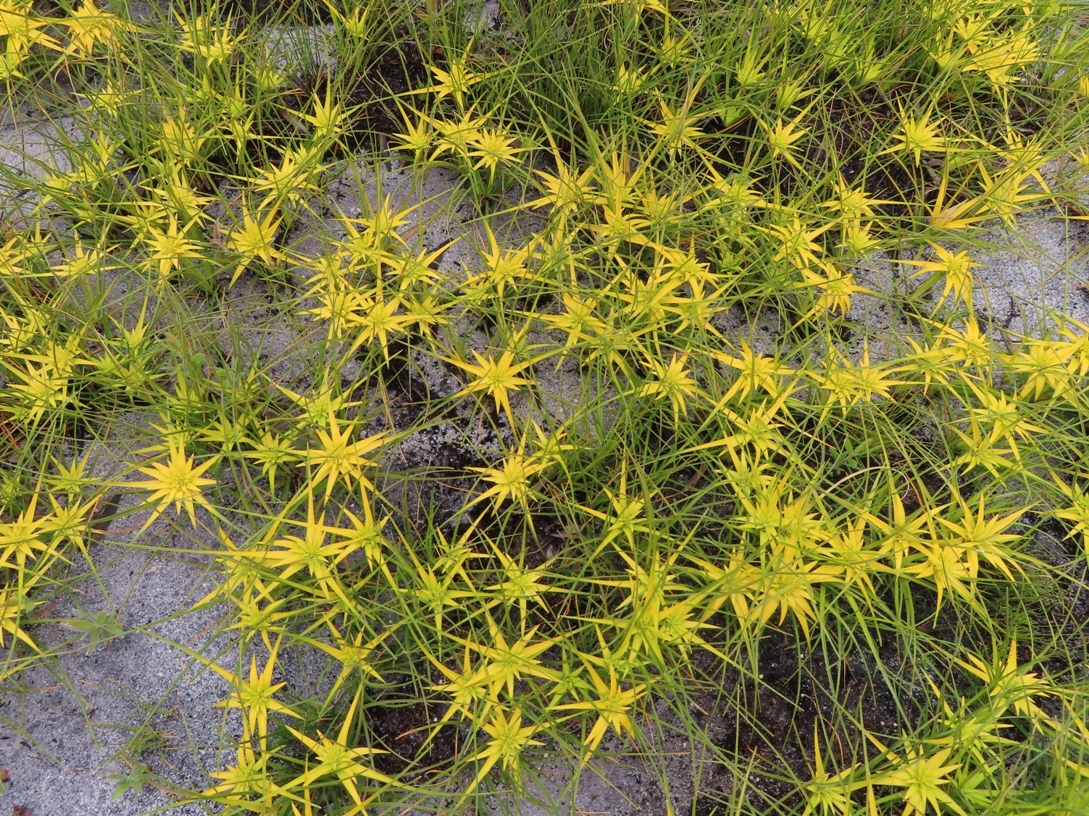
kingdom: Plantae
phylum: Tracheophyta
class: Liliopsida
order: Poales
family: Cyperaceae
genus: Ficinia
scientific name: Ficinia radiata
